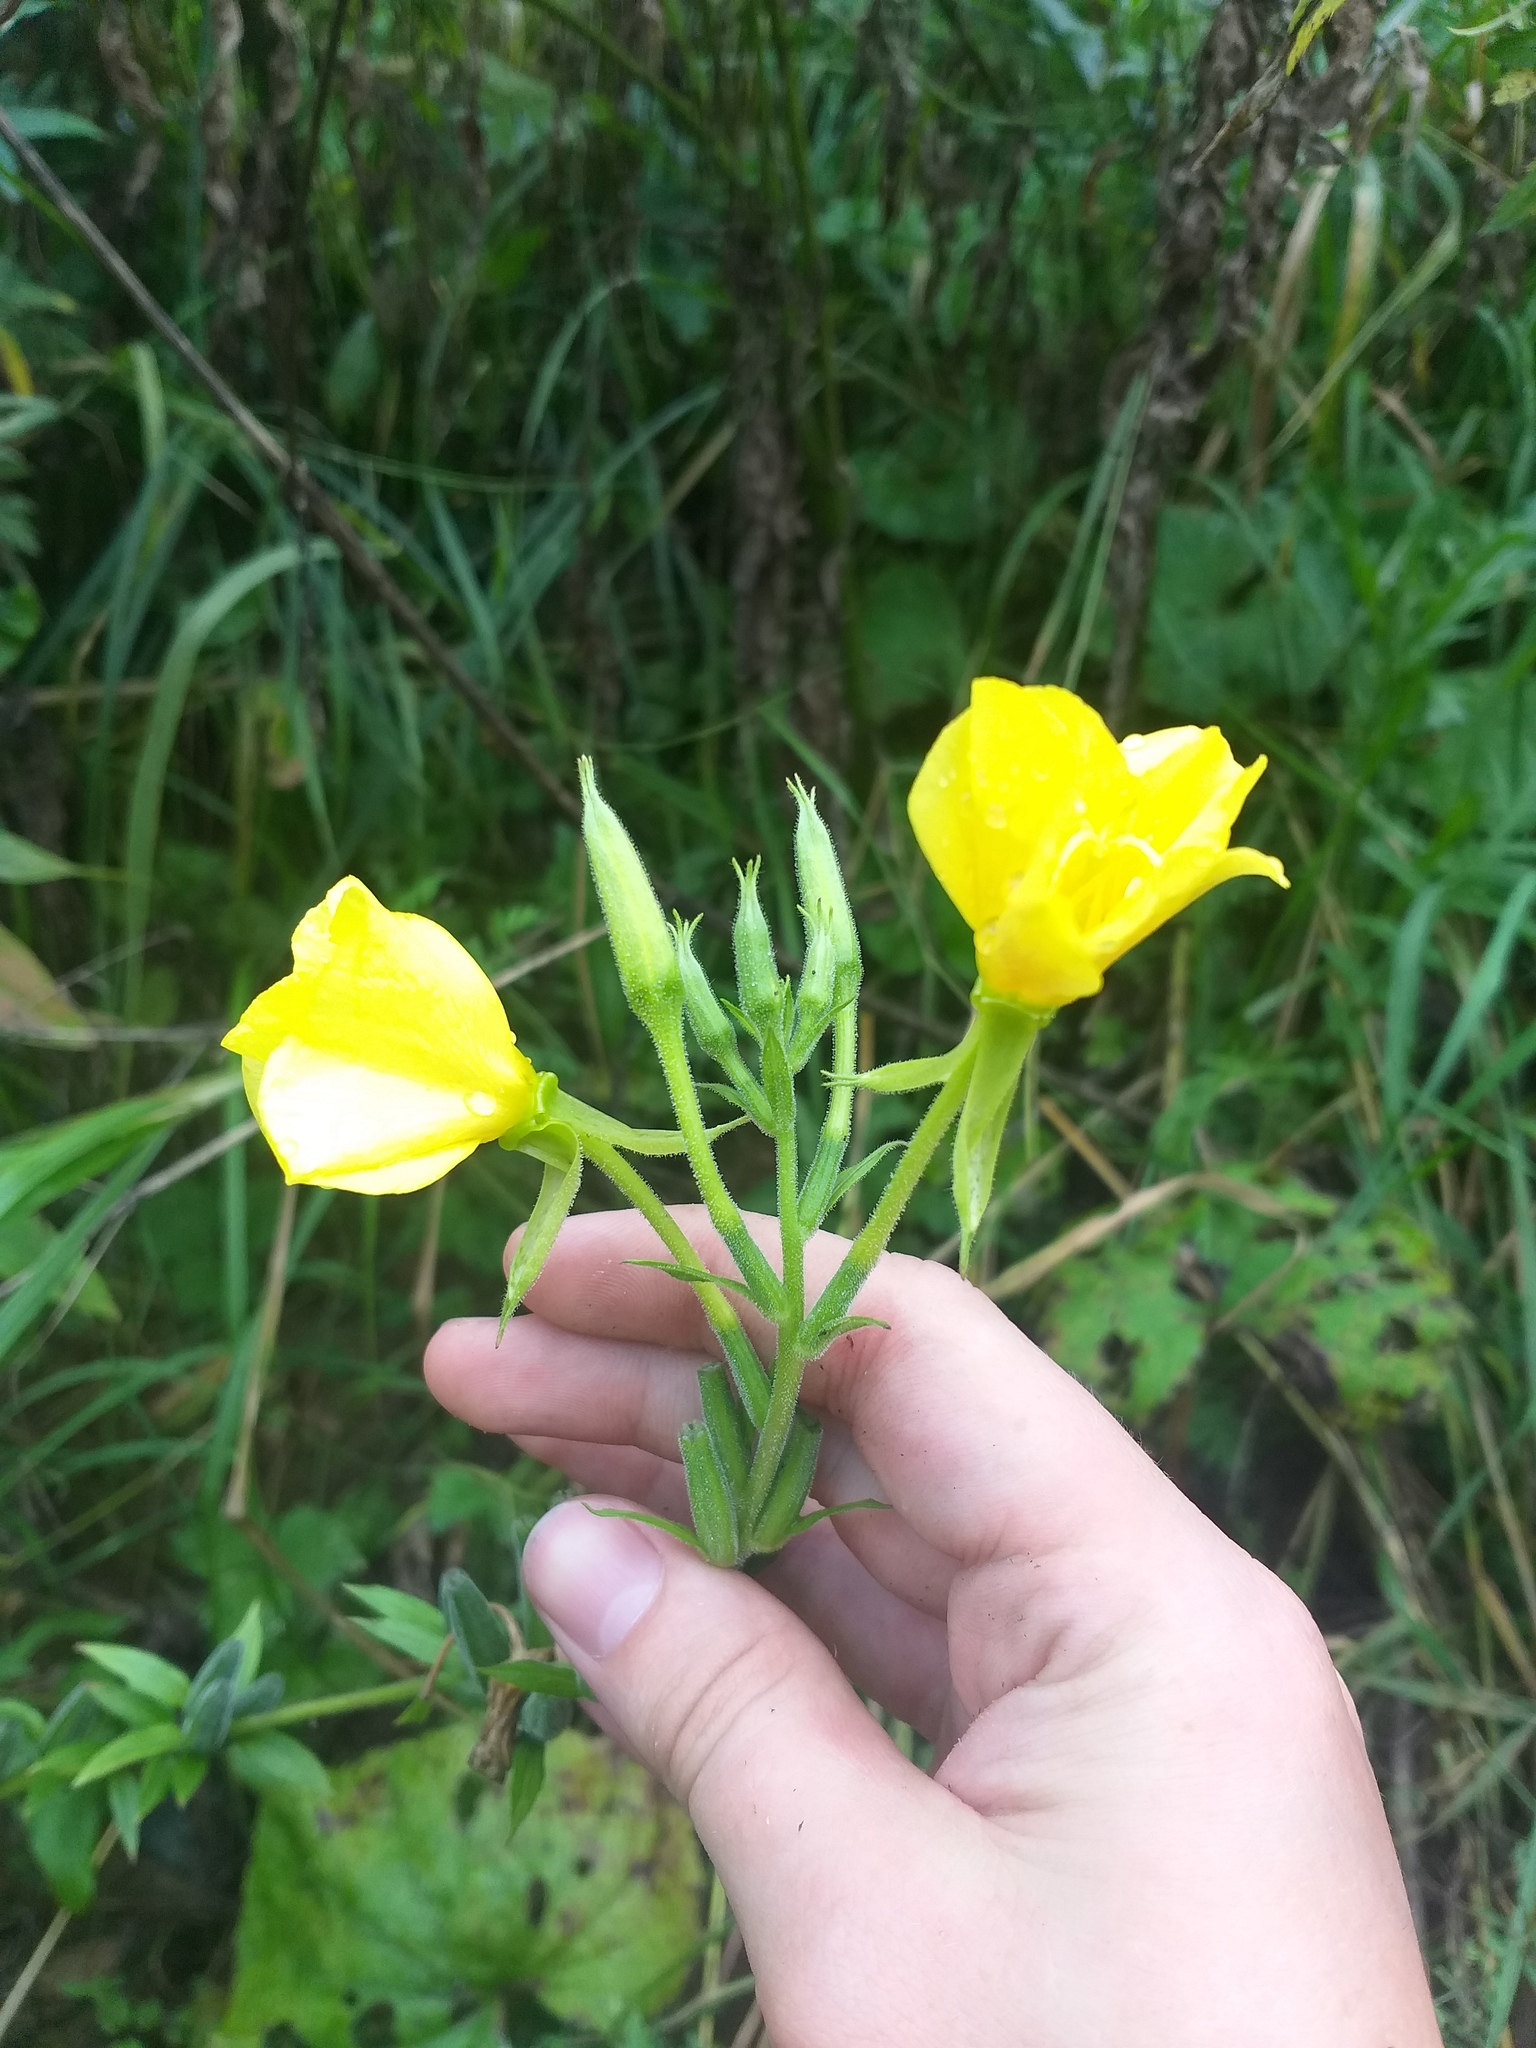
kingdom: Plantae
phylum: Tracheophyta
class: Magnoliopsida
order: Myrtales
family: Onagraceae
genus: Oenothera
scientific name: Oenothera biennis
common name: Common evening-primrose
